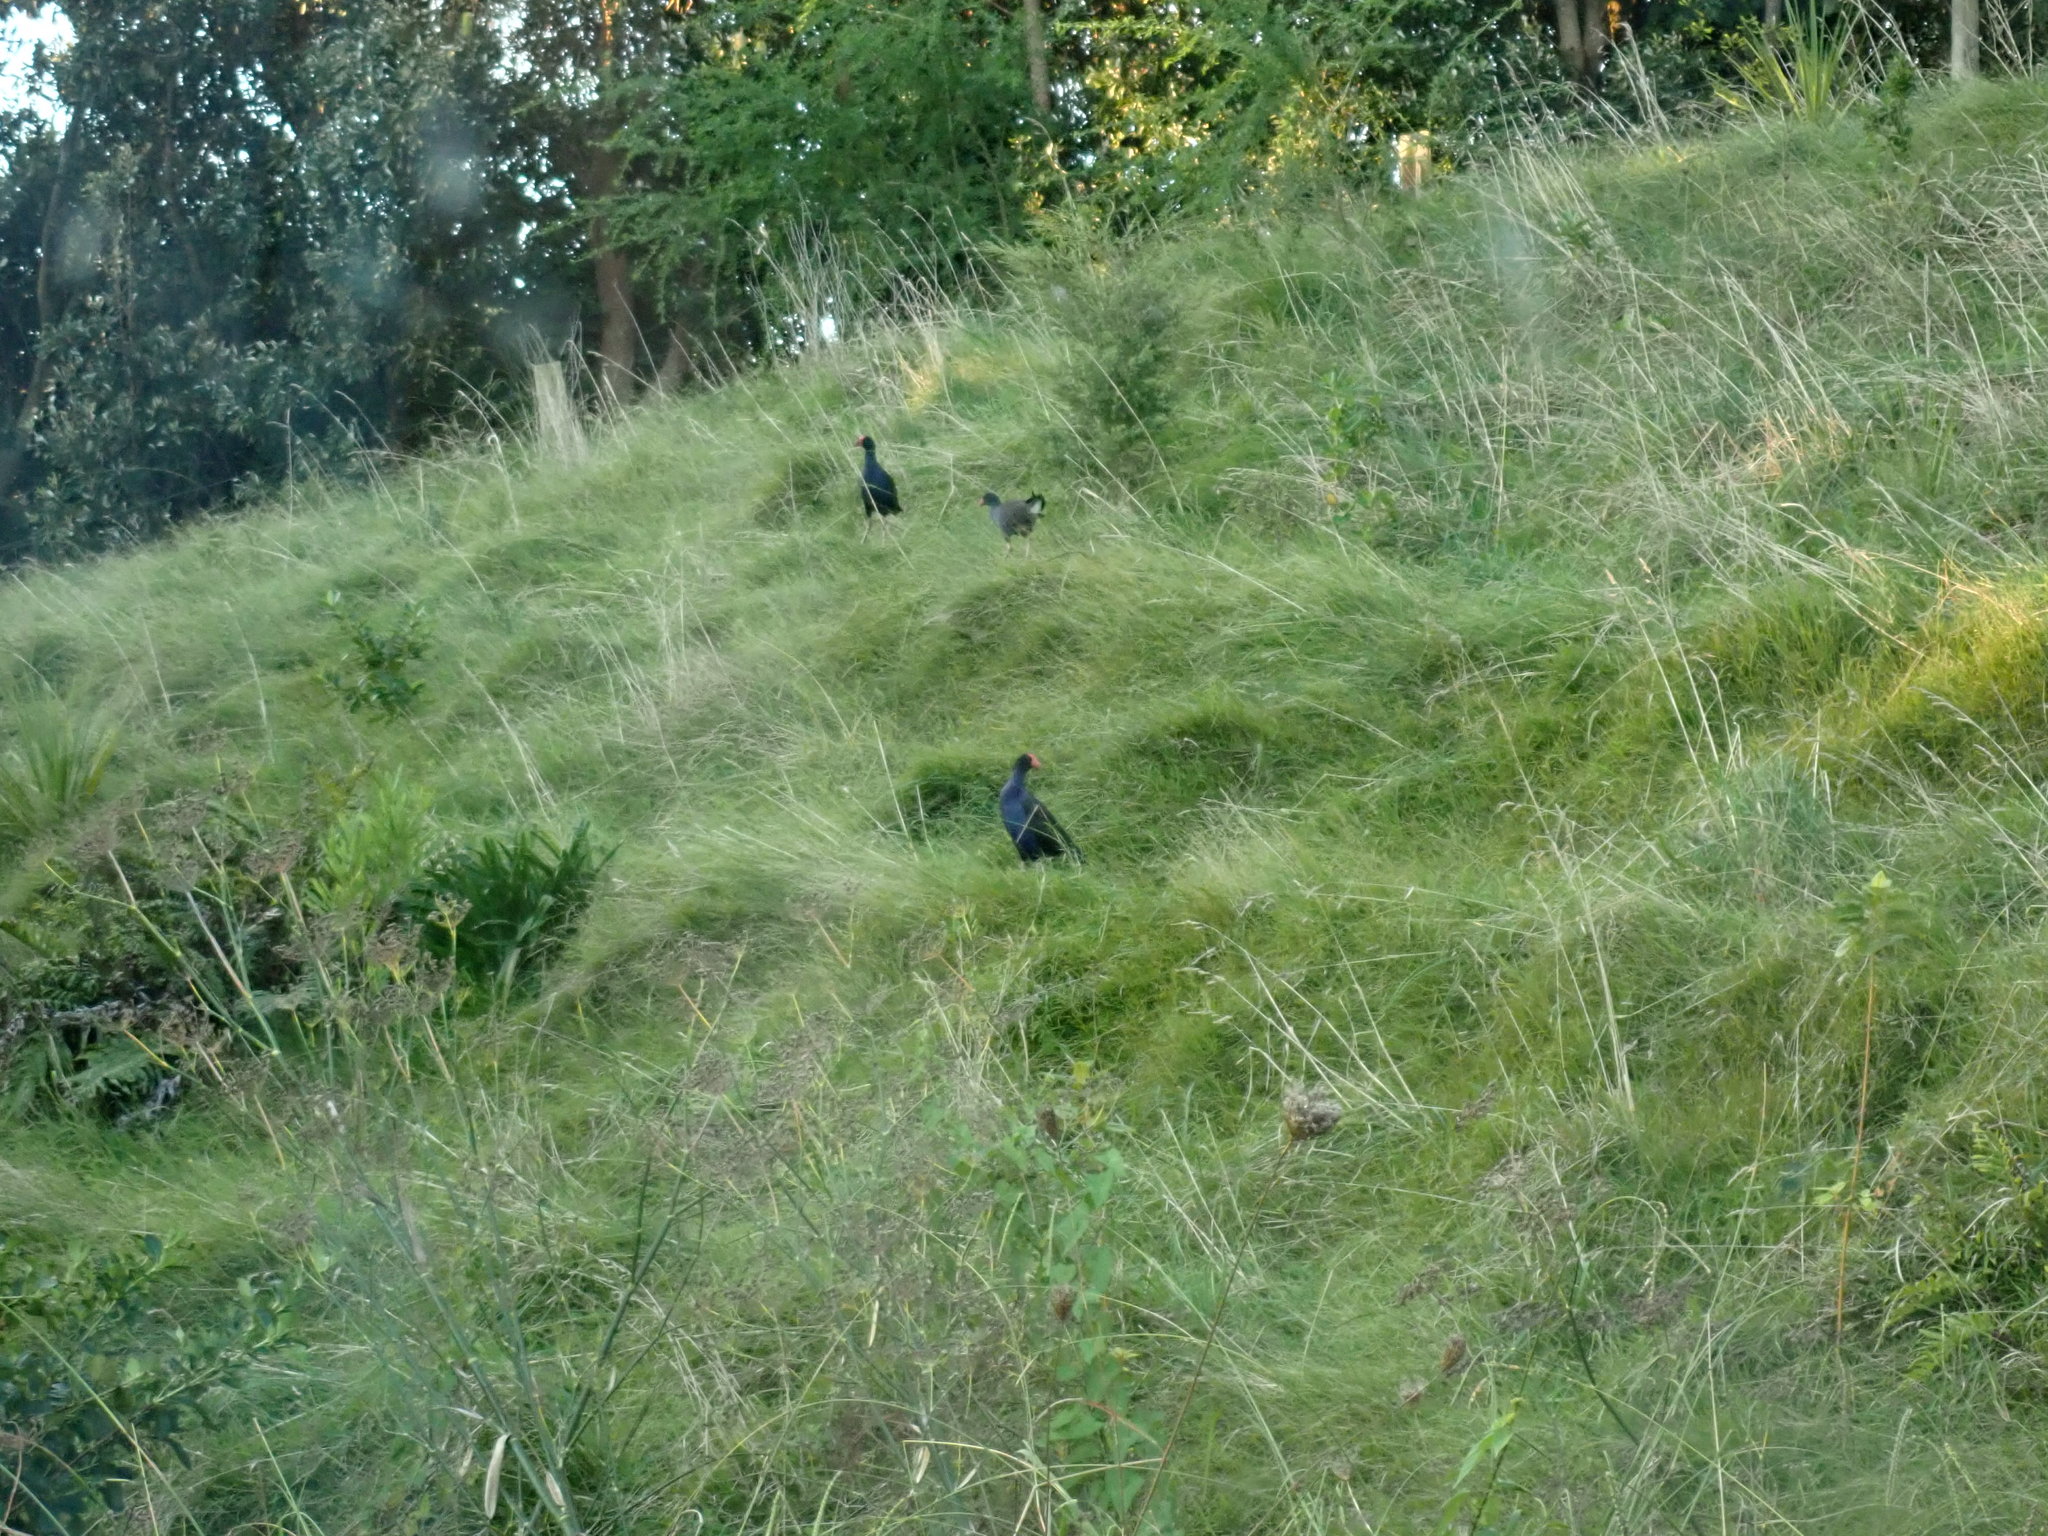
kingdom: Animalia
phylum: Chordata
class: Aves
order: Gruiformes
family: Rallidae
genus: Porphyrio
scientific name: Porphyrio melanotus
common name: Australasian swamphen
